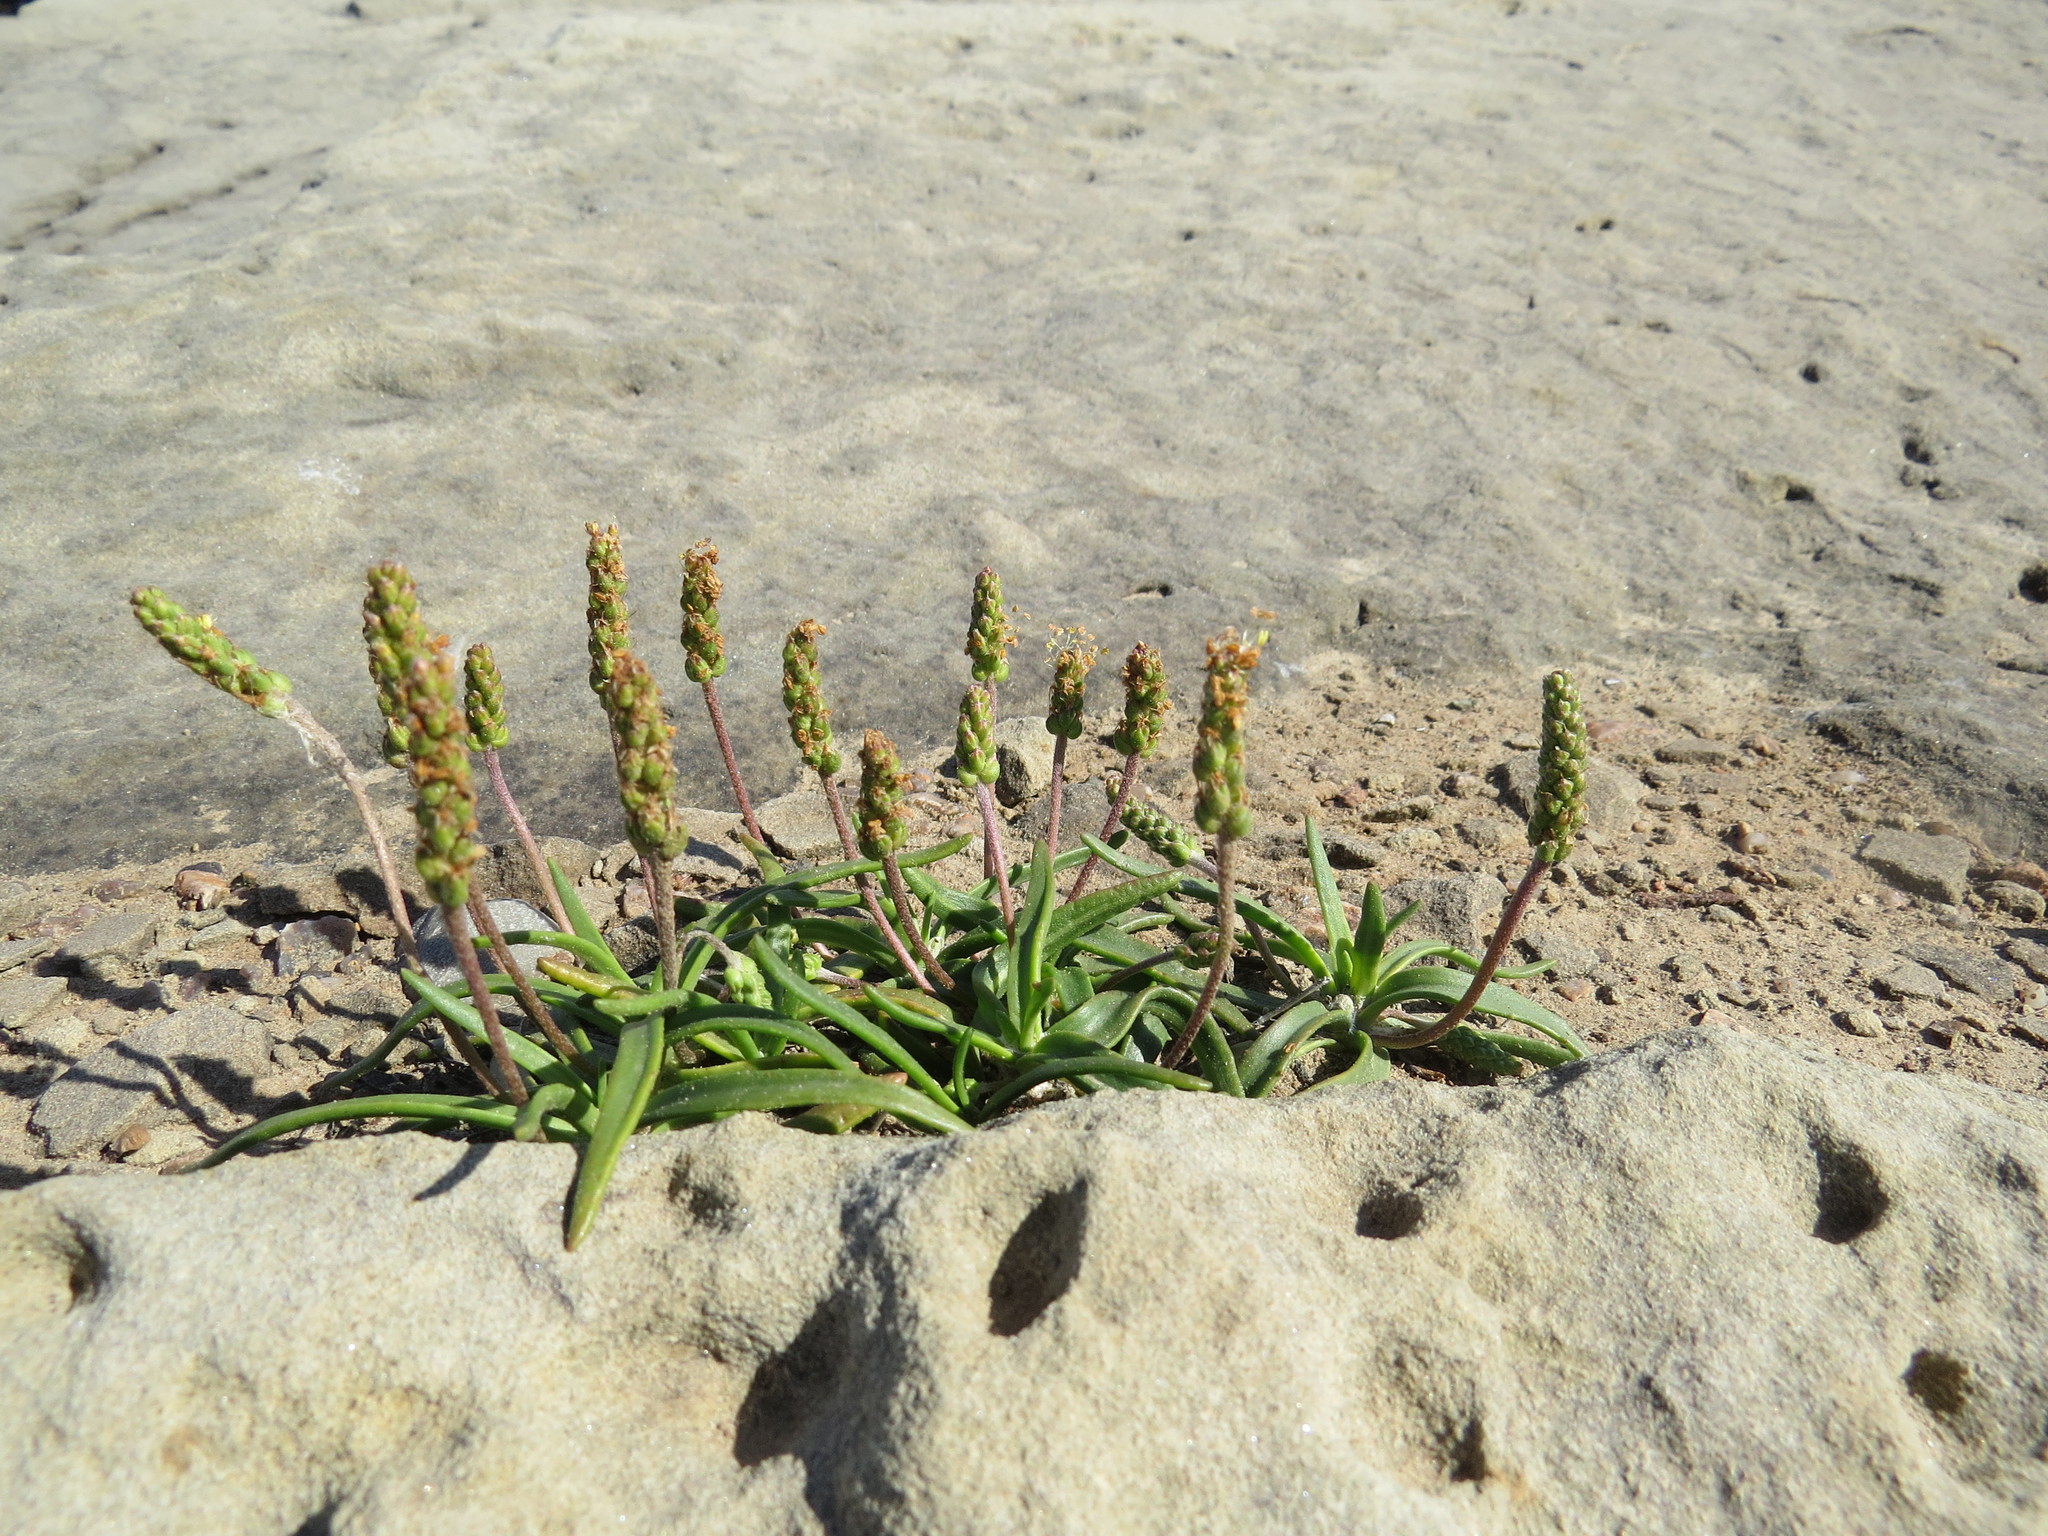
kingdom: Plantae
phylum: Tracheophyta
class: Magnoliopsida
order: Lamiales
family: Plantaginaceae
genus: Plantago
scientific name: Plantago maritima
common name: Sea plantain
